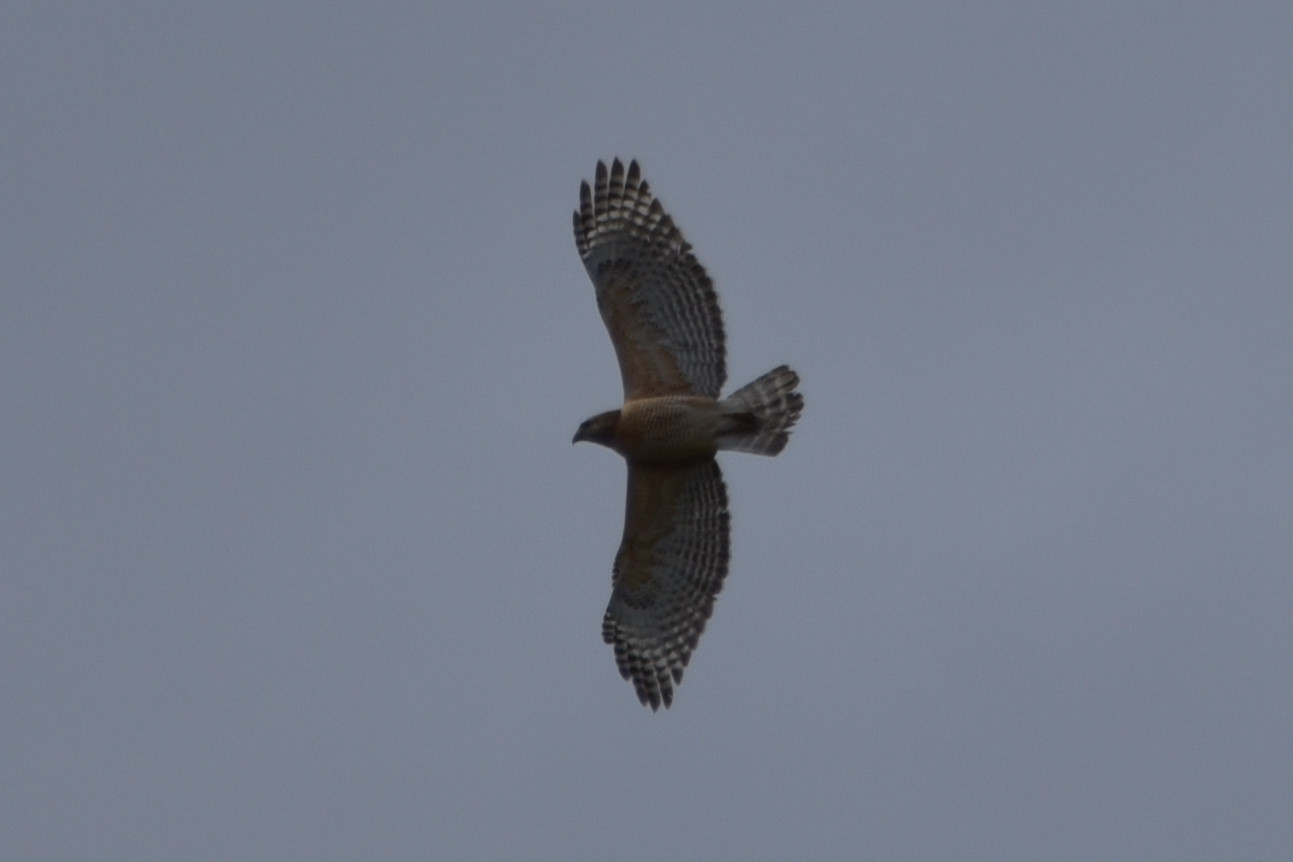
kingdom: Animalia
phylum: Chordata
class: Aves
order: Accipitriformes
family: Accipitridae
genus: Buteo
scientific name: Buteo lineatus
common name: Red-shouldered hawk
